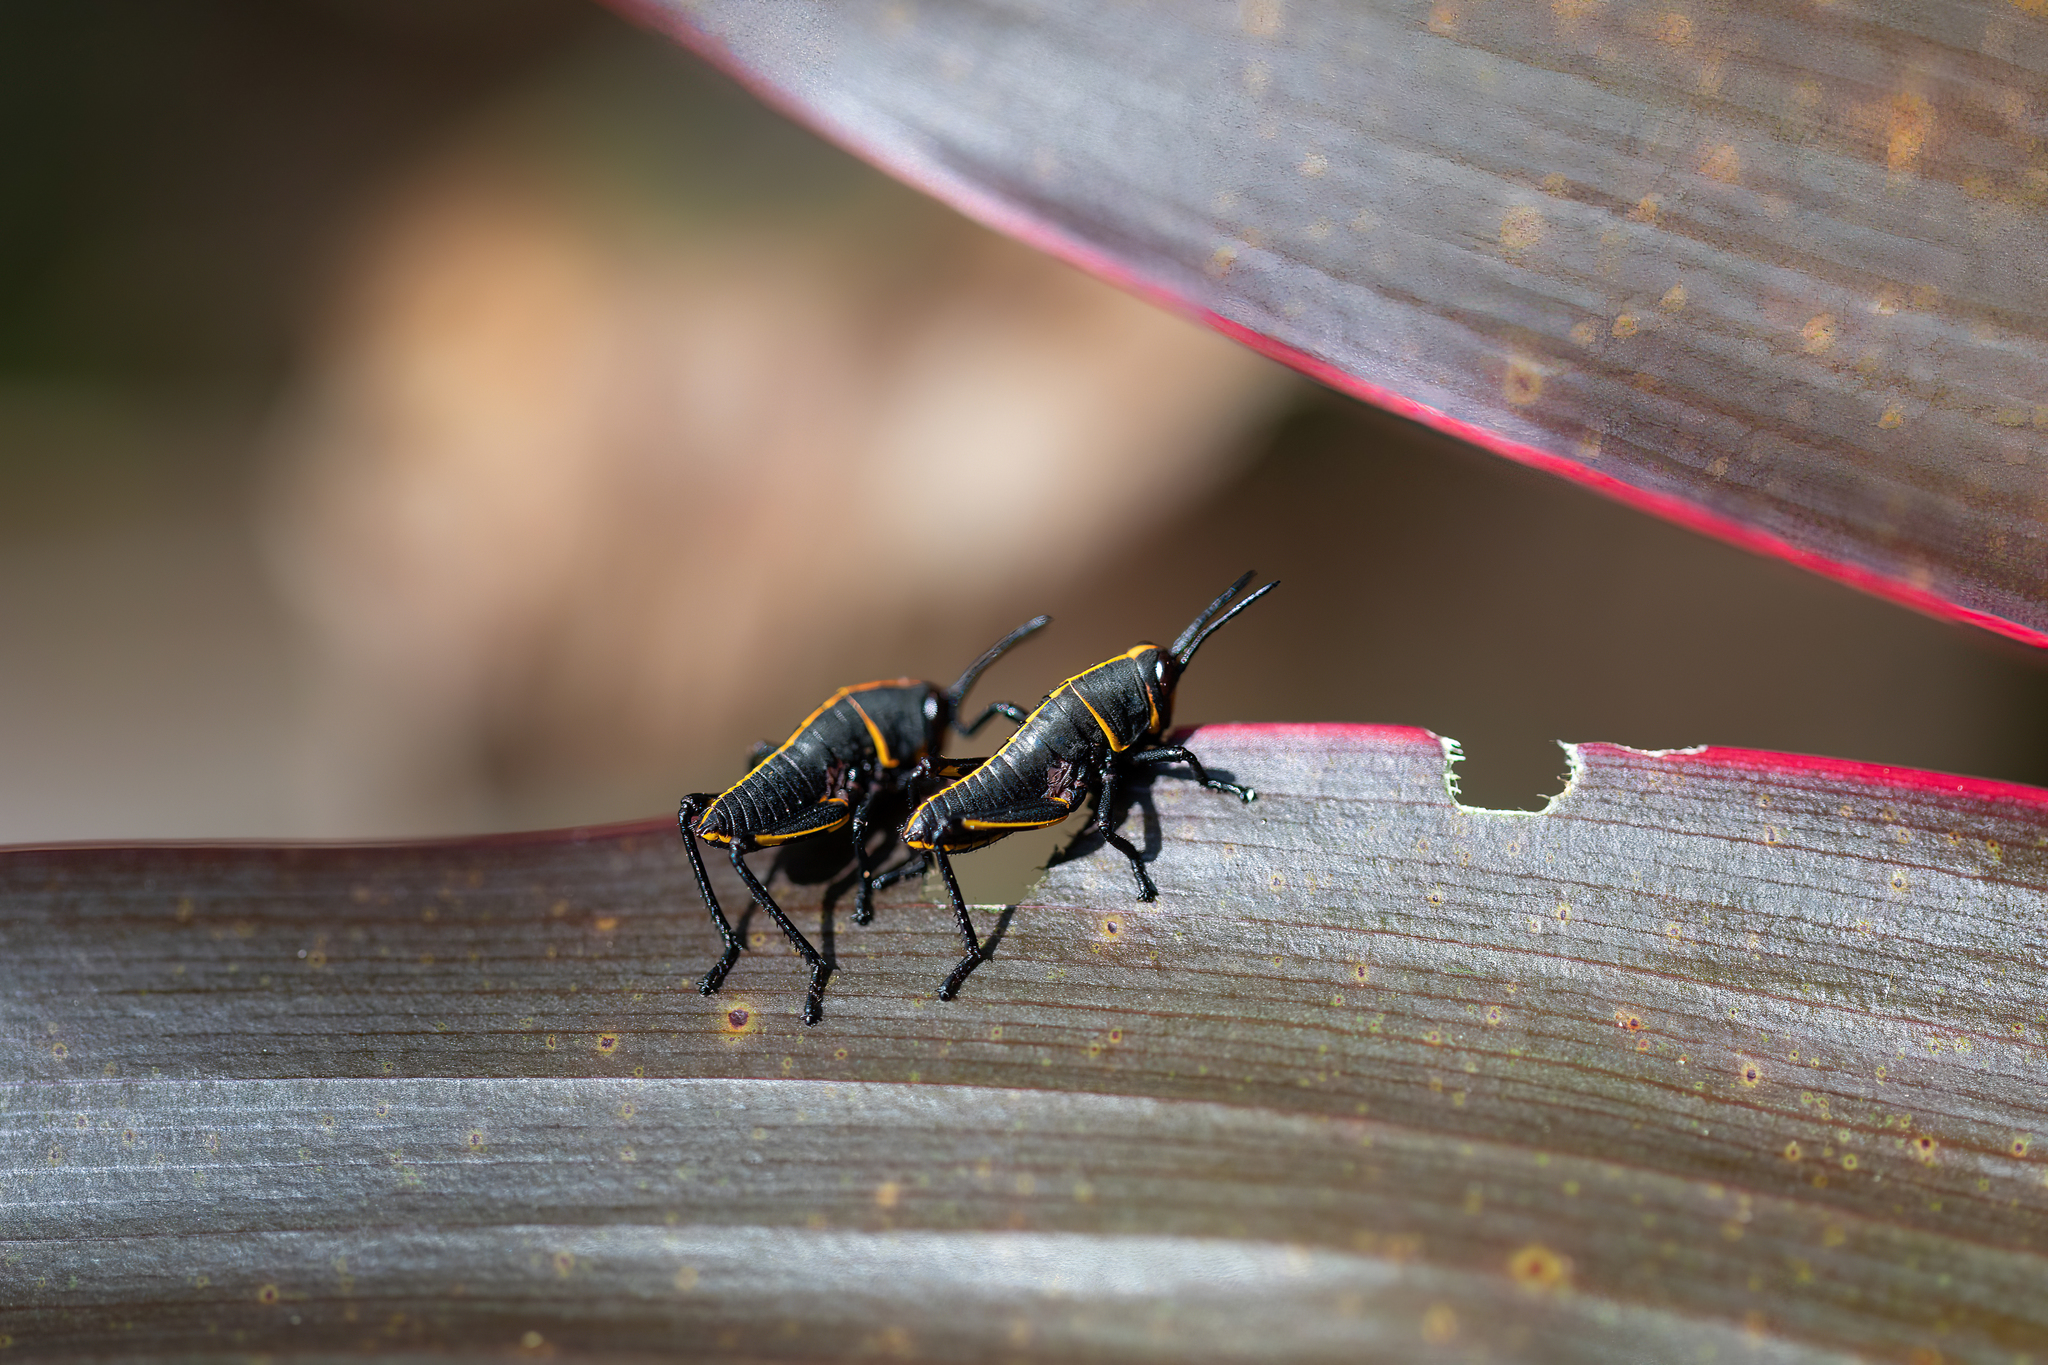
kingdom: Animalia
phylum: Arthropoda
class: Insecta
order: Orthoptera
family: Romaleidae
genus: Romalea
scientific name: Romalea microptera
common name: Eastern lubber grasshopper
